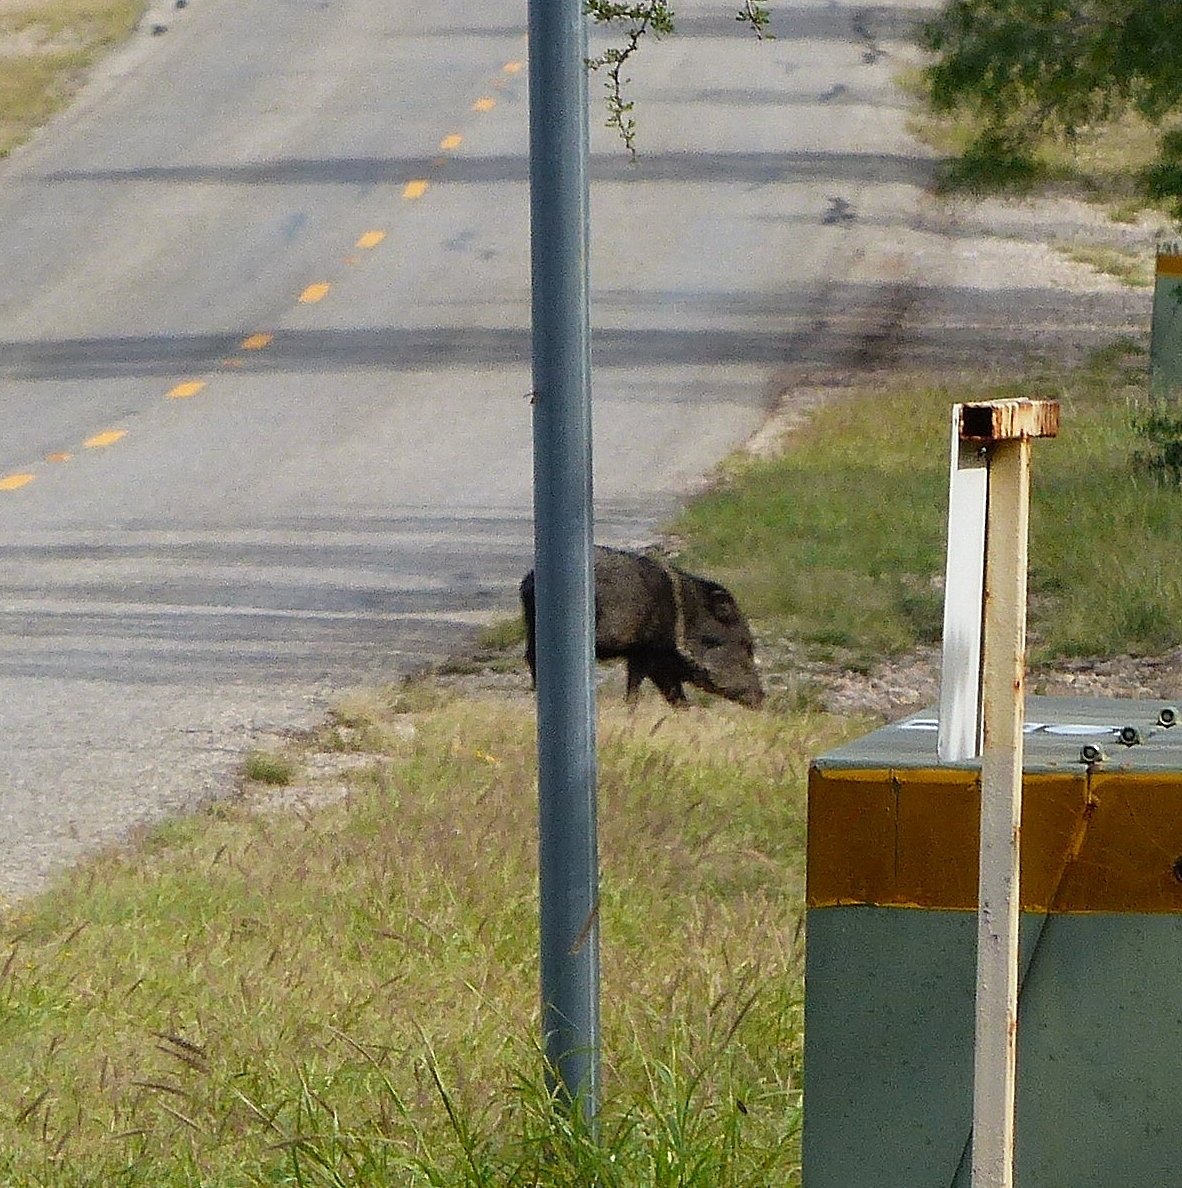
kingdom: Animalia
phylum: Chordata
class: Mammalia
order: Artiodactyla
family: Tayassuidae
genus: Pecari
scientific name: Pecari tajacu
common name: Collared peccary
